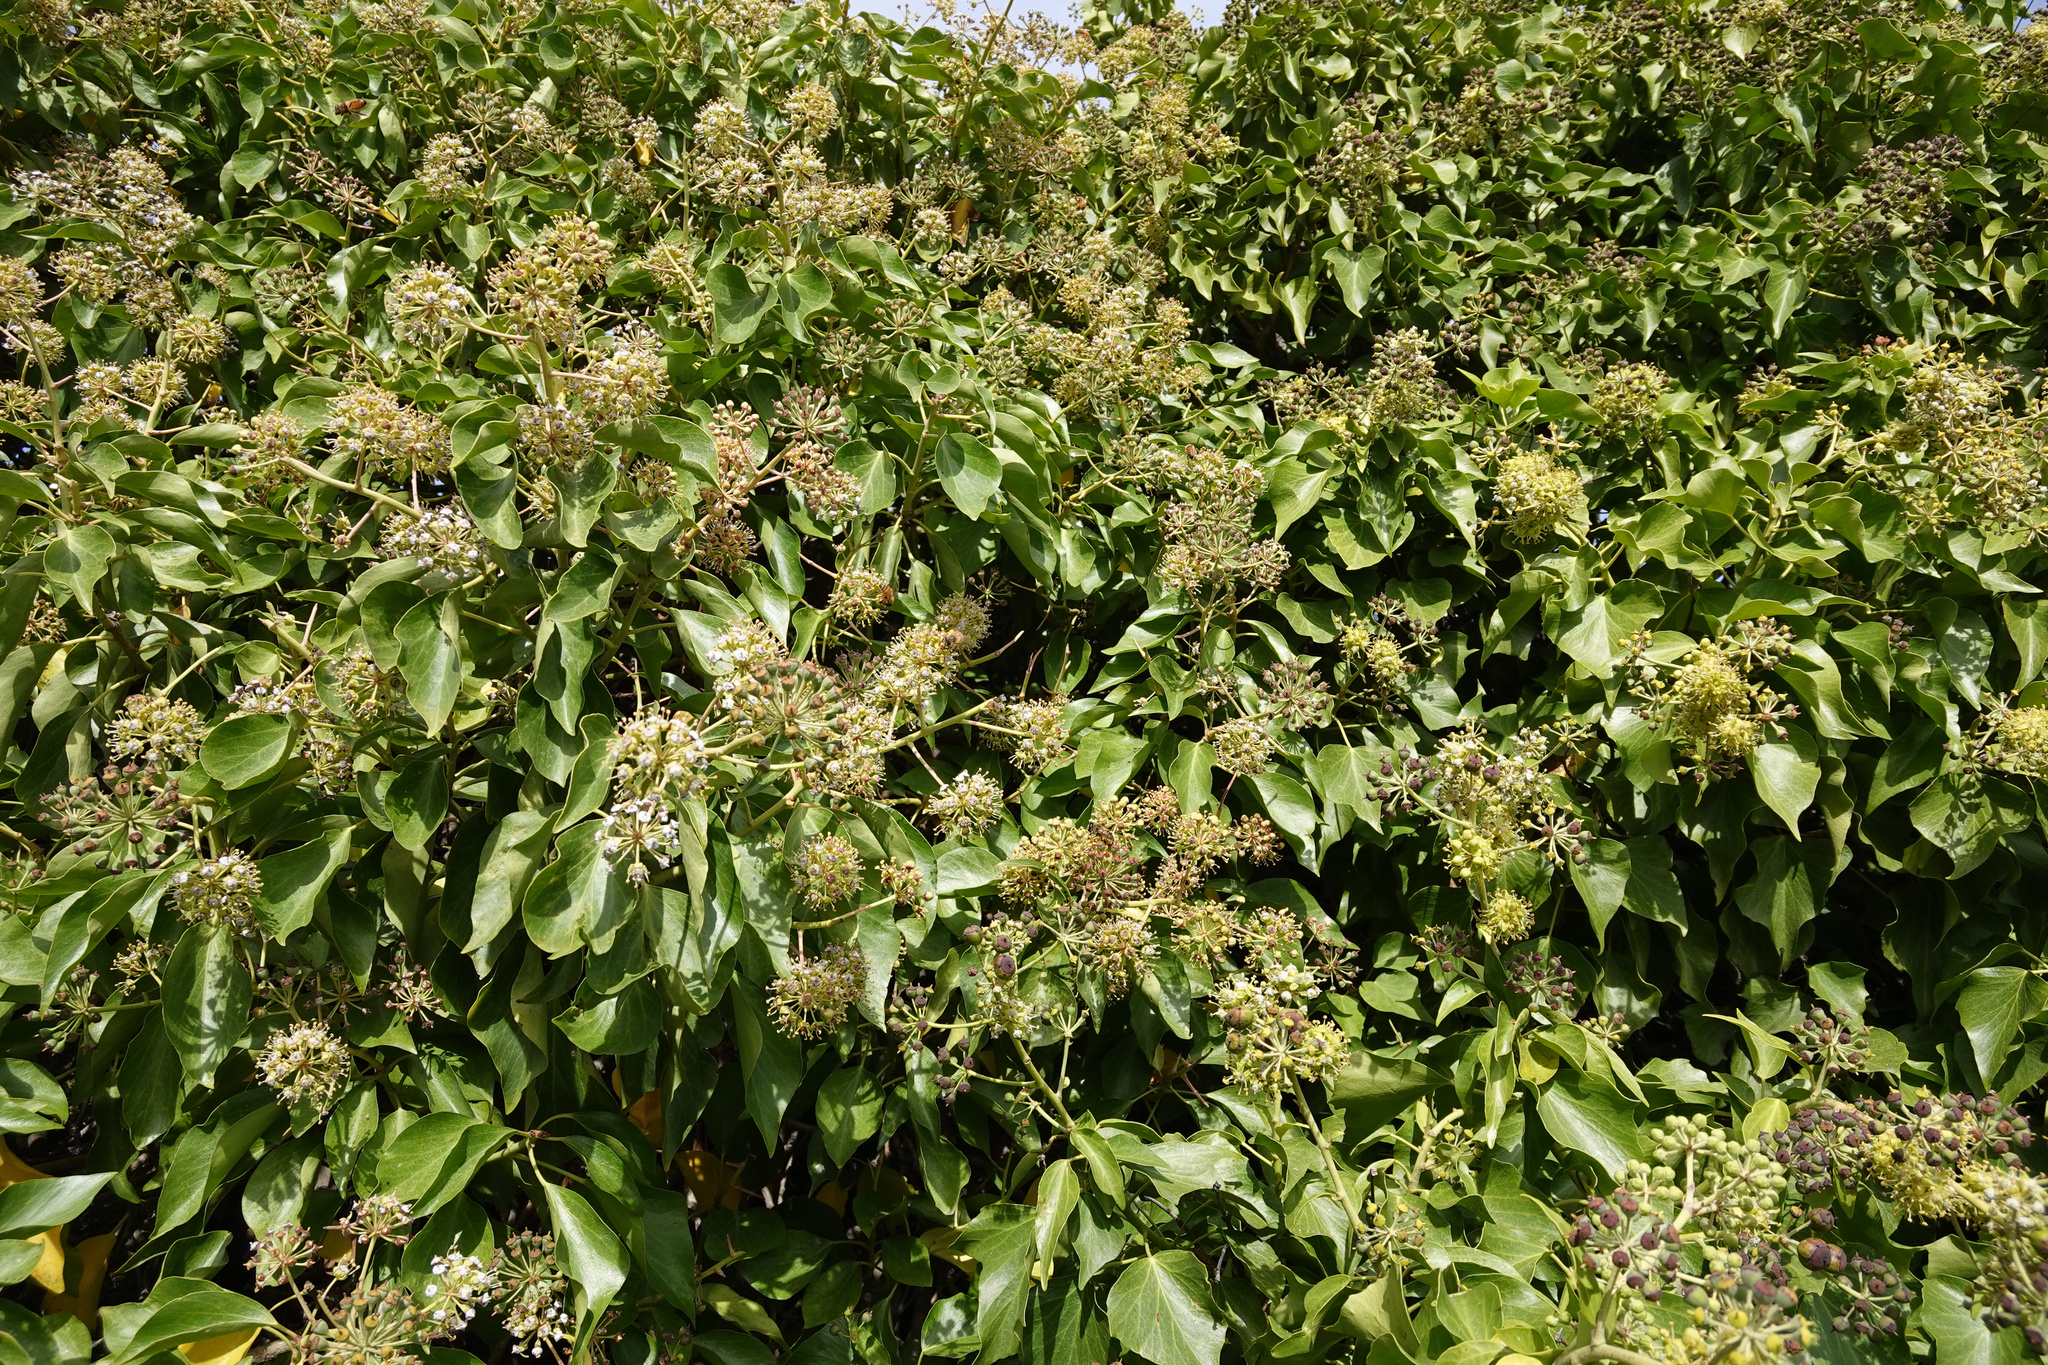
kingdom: Plantae
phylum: Tracheophyta
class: Magnoliopsida
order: Apiales
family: Araliaceae
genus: Hedera
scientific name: Hedera helix
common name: Ivy
